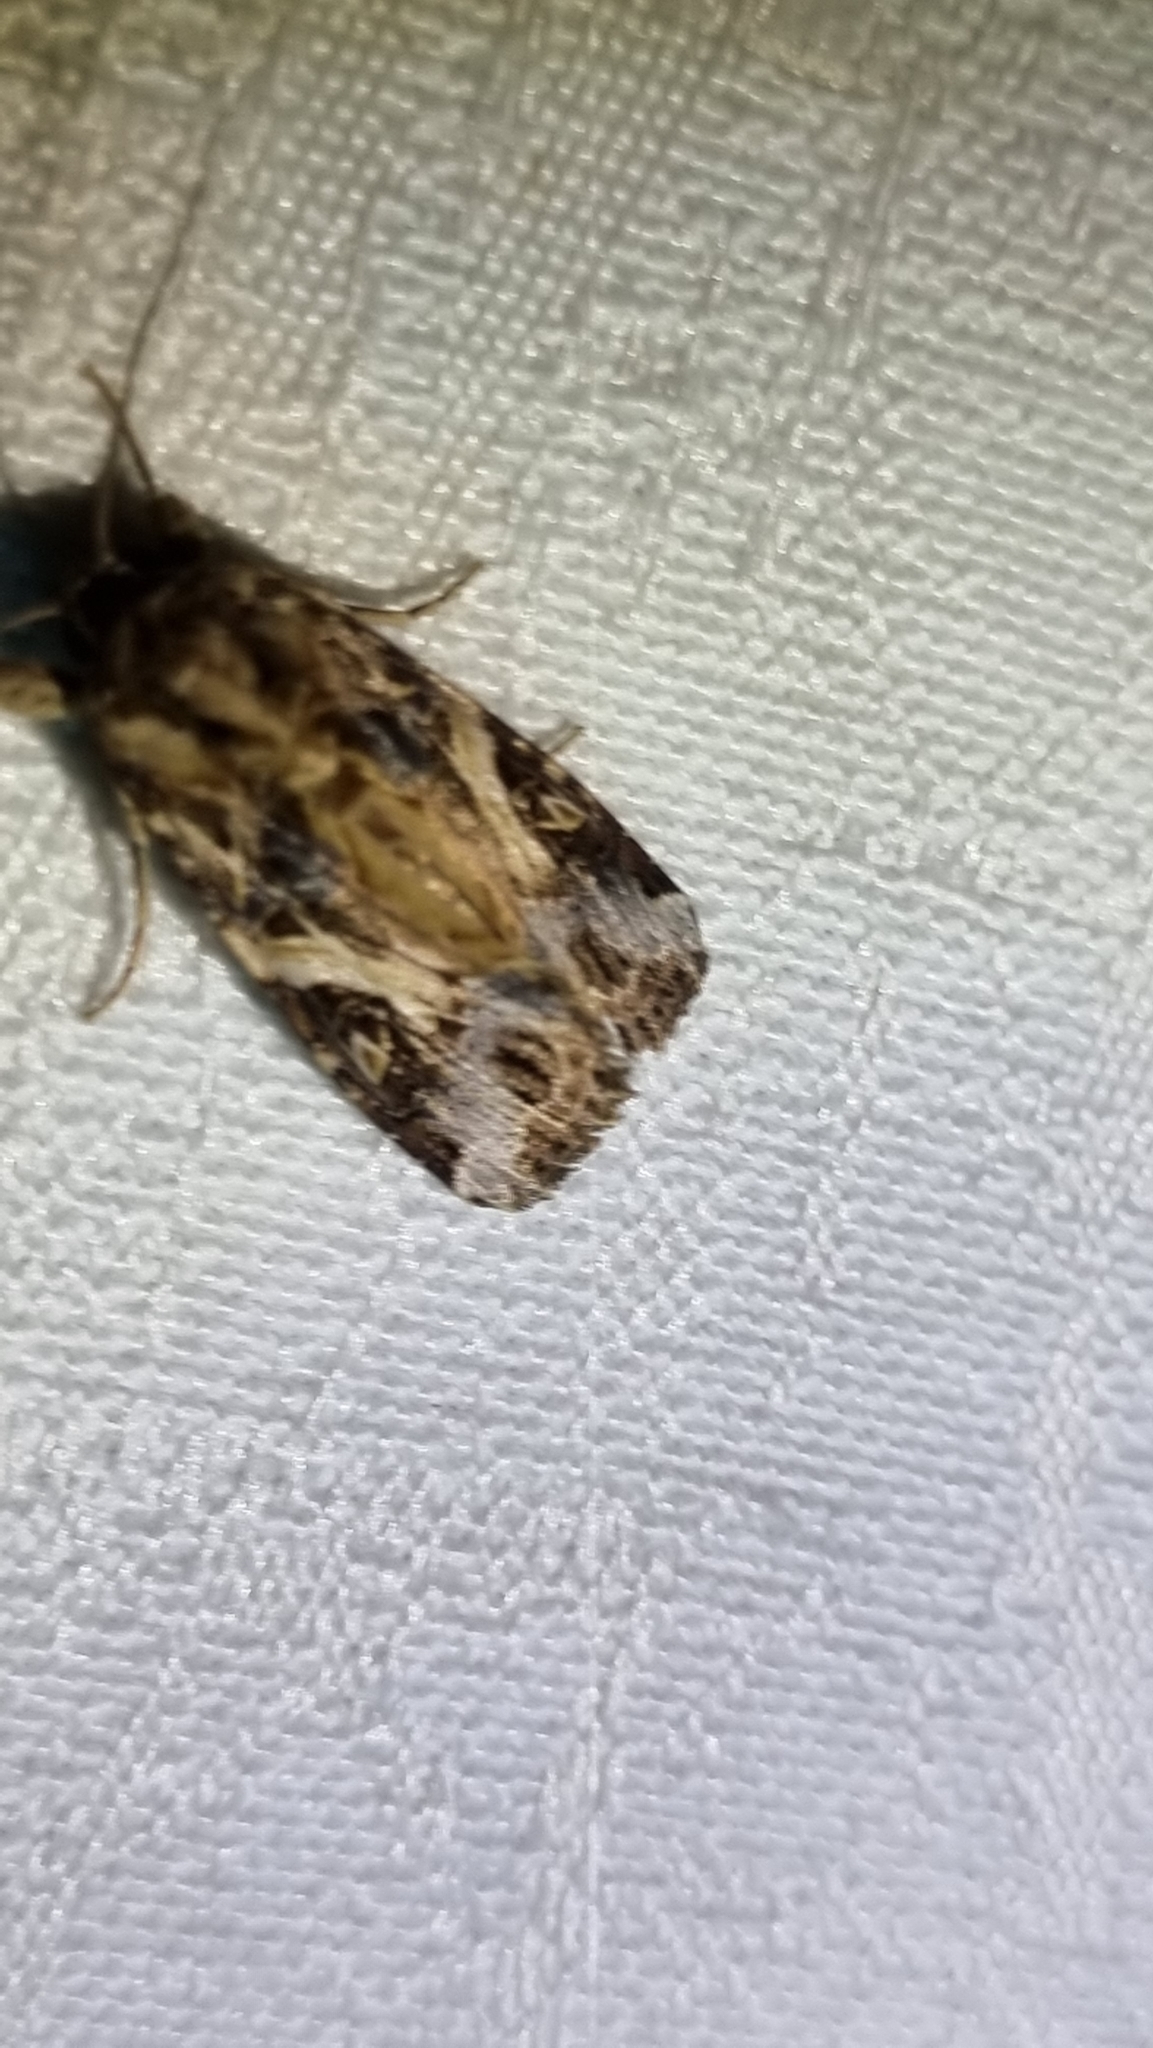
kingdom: Animalia
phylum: Arthropoda
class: Insecta
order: Lepidoptera
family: Noctuidae
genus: Spodoptera
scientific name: Spodoptera litura
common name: Asian cotton leafworm
